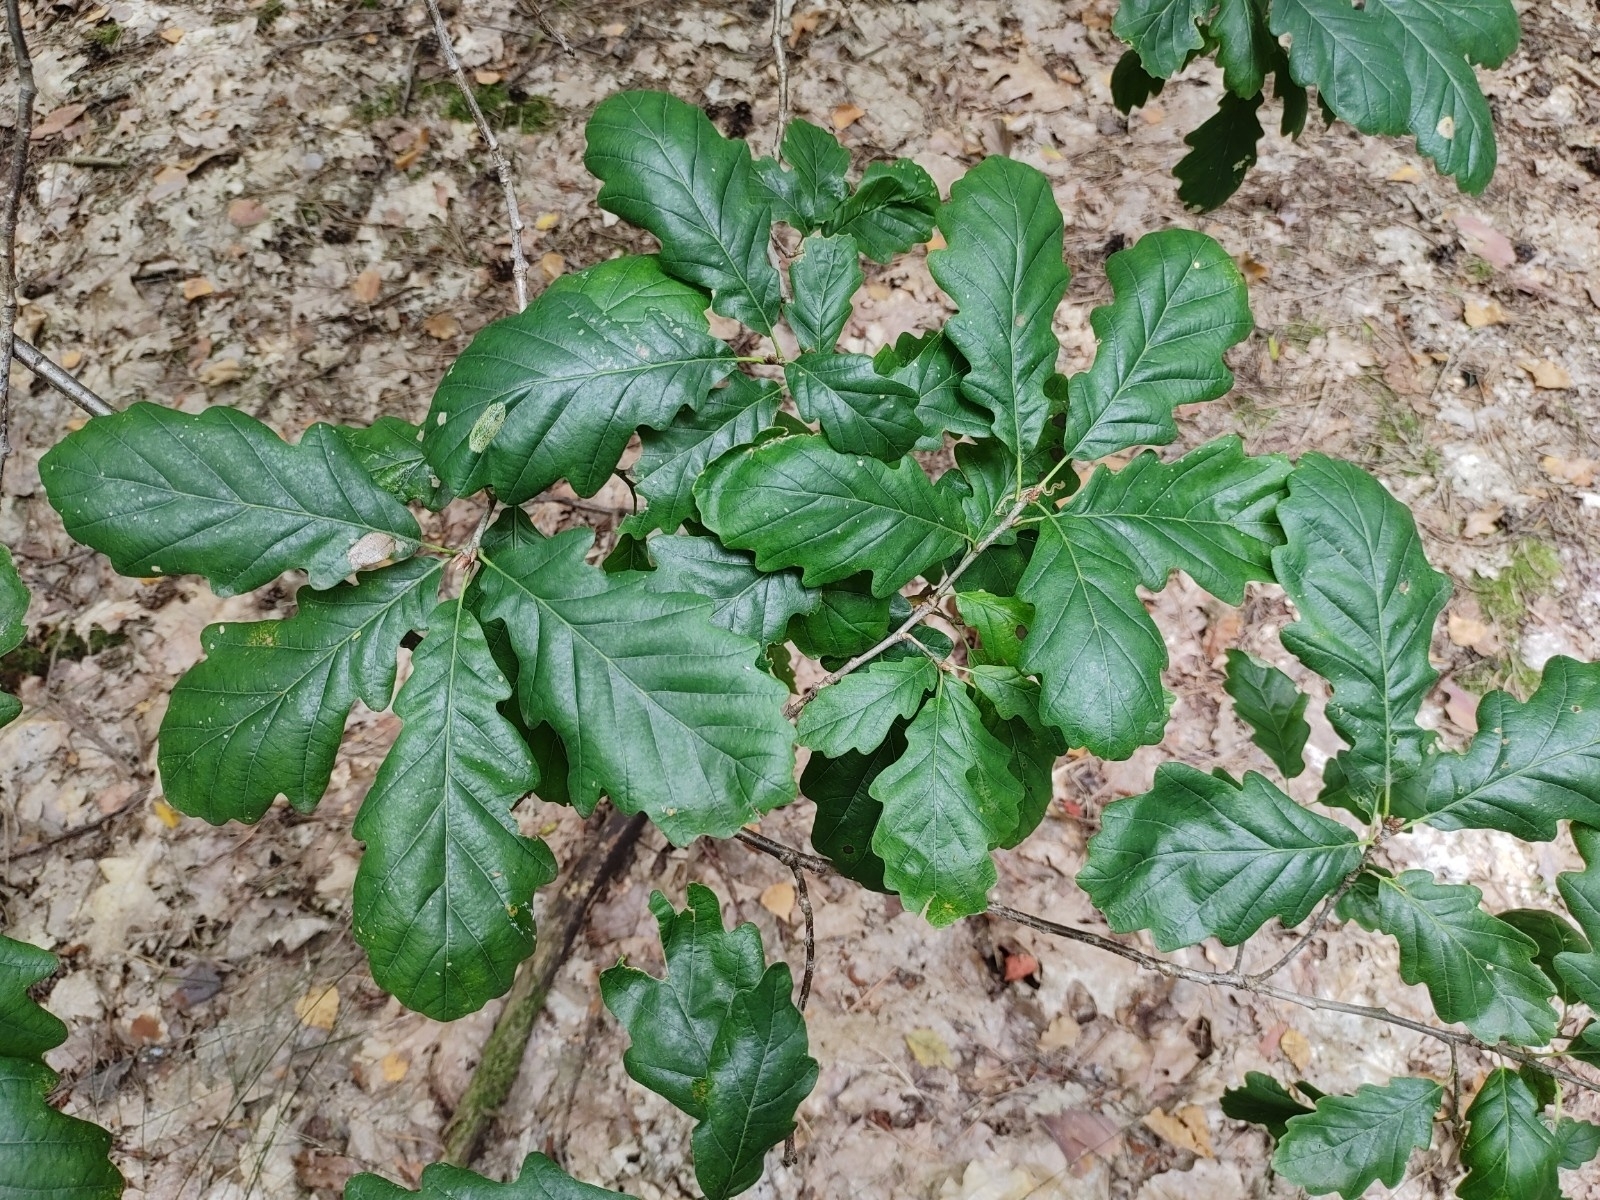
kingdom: Plantae
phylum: Tracheophyta
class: Magnoliopsida
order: Fagales
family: Fagaceae
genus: Quercus
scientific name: Quercus petraea
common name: Sessile oak
